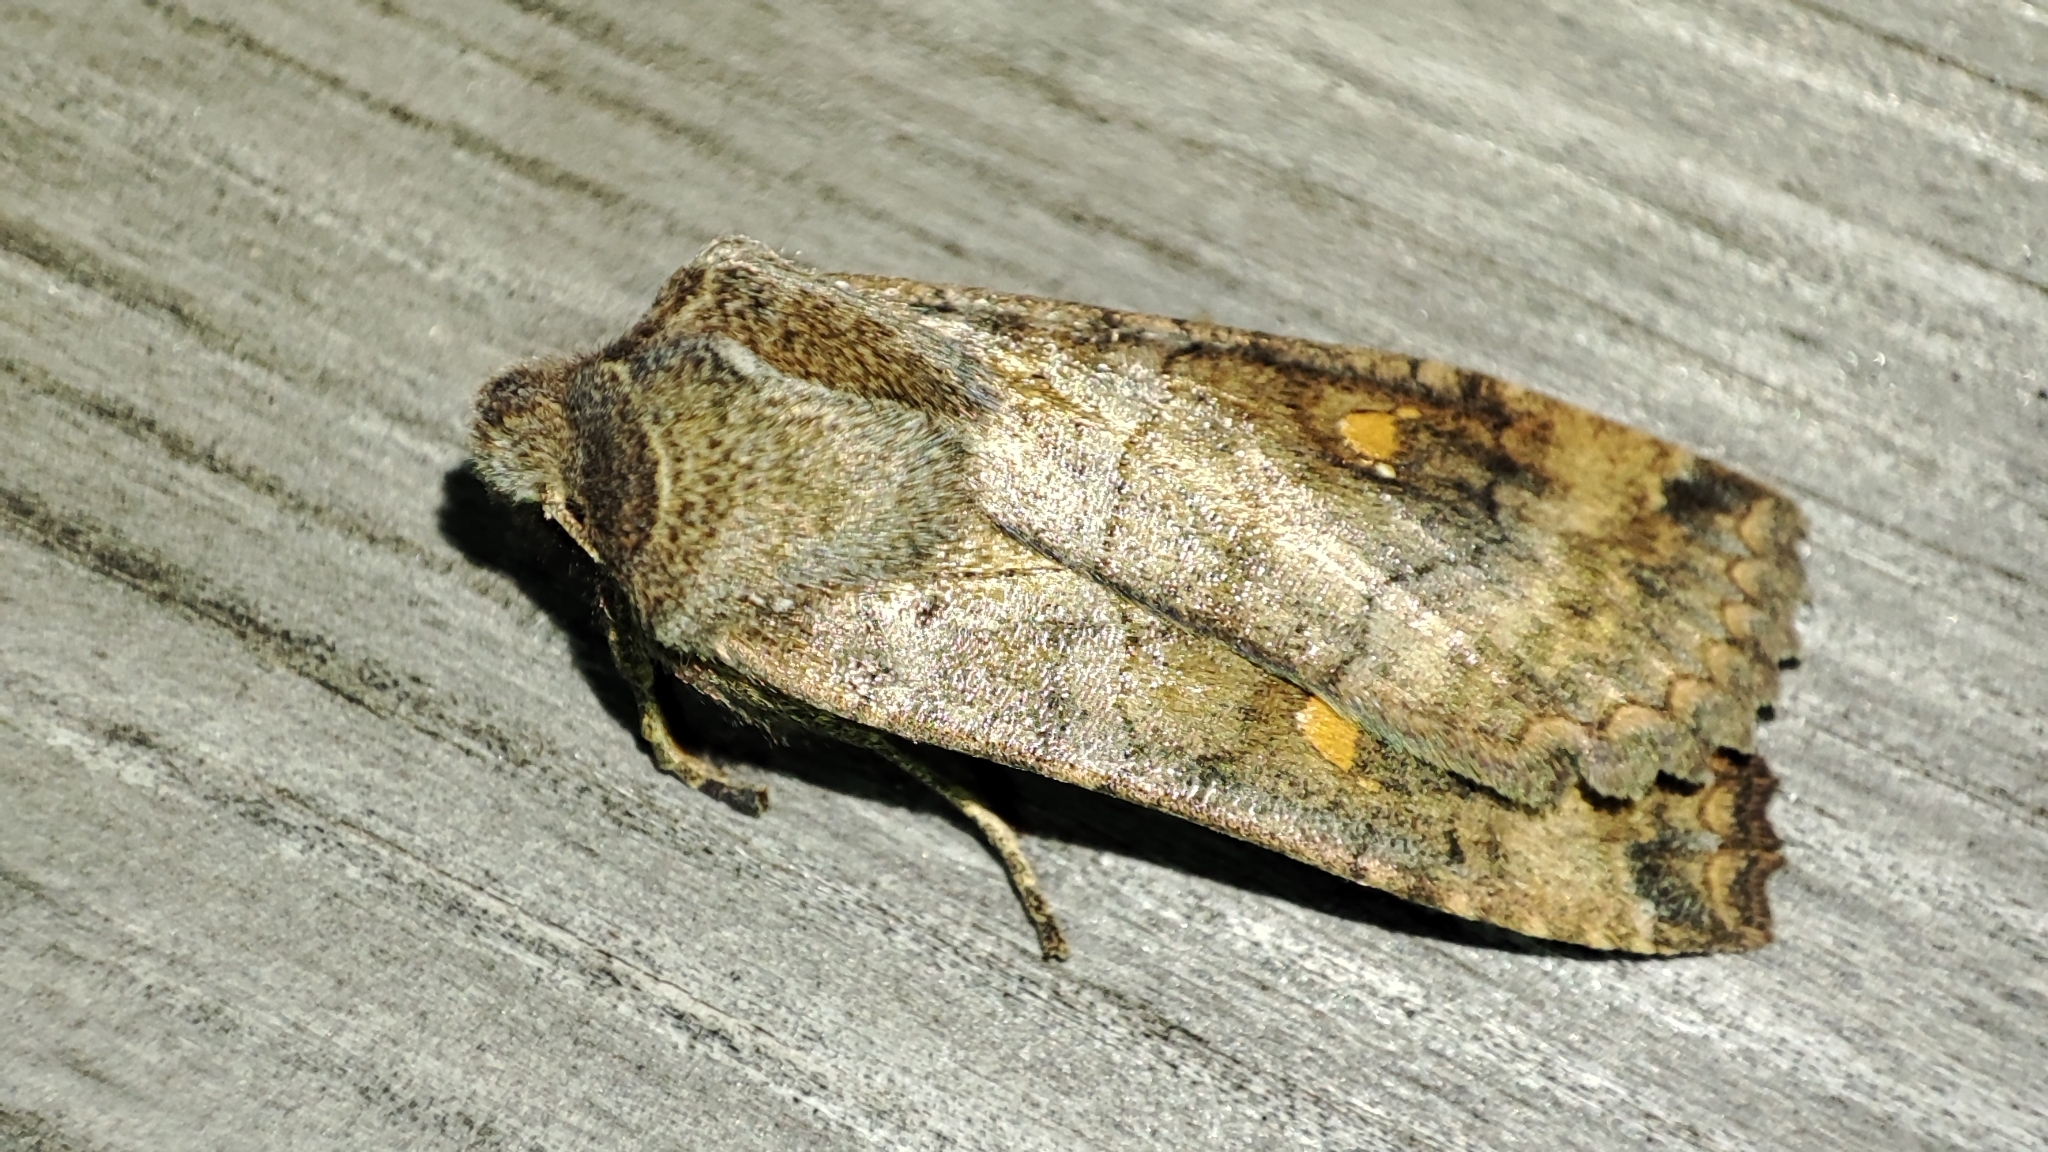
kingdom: Animalia
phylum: Arthropoda
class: Insecta
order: Lepidoptera
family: Noctuidae
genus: Eupsilia
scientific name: Eupsilia transversa
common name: Satellite
